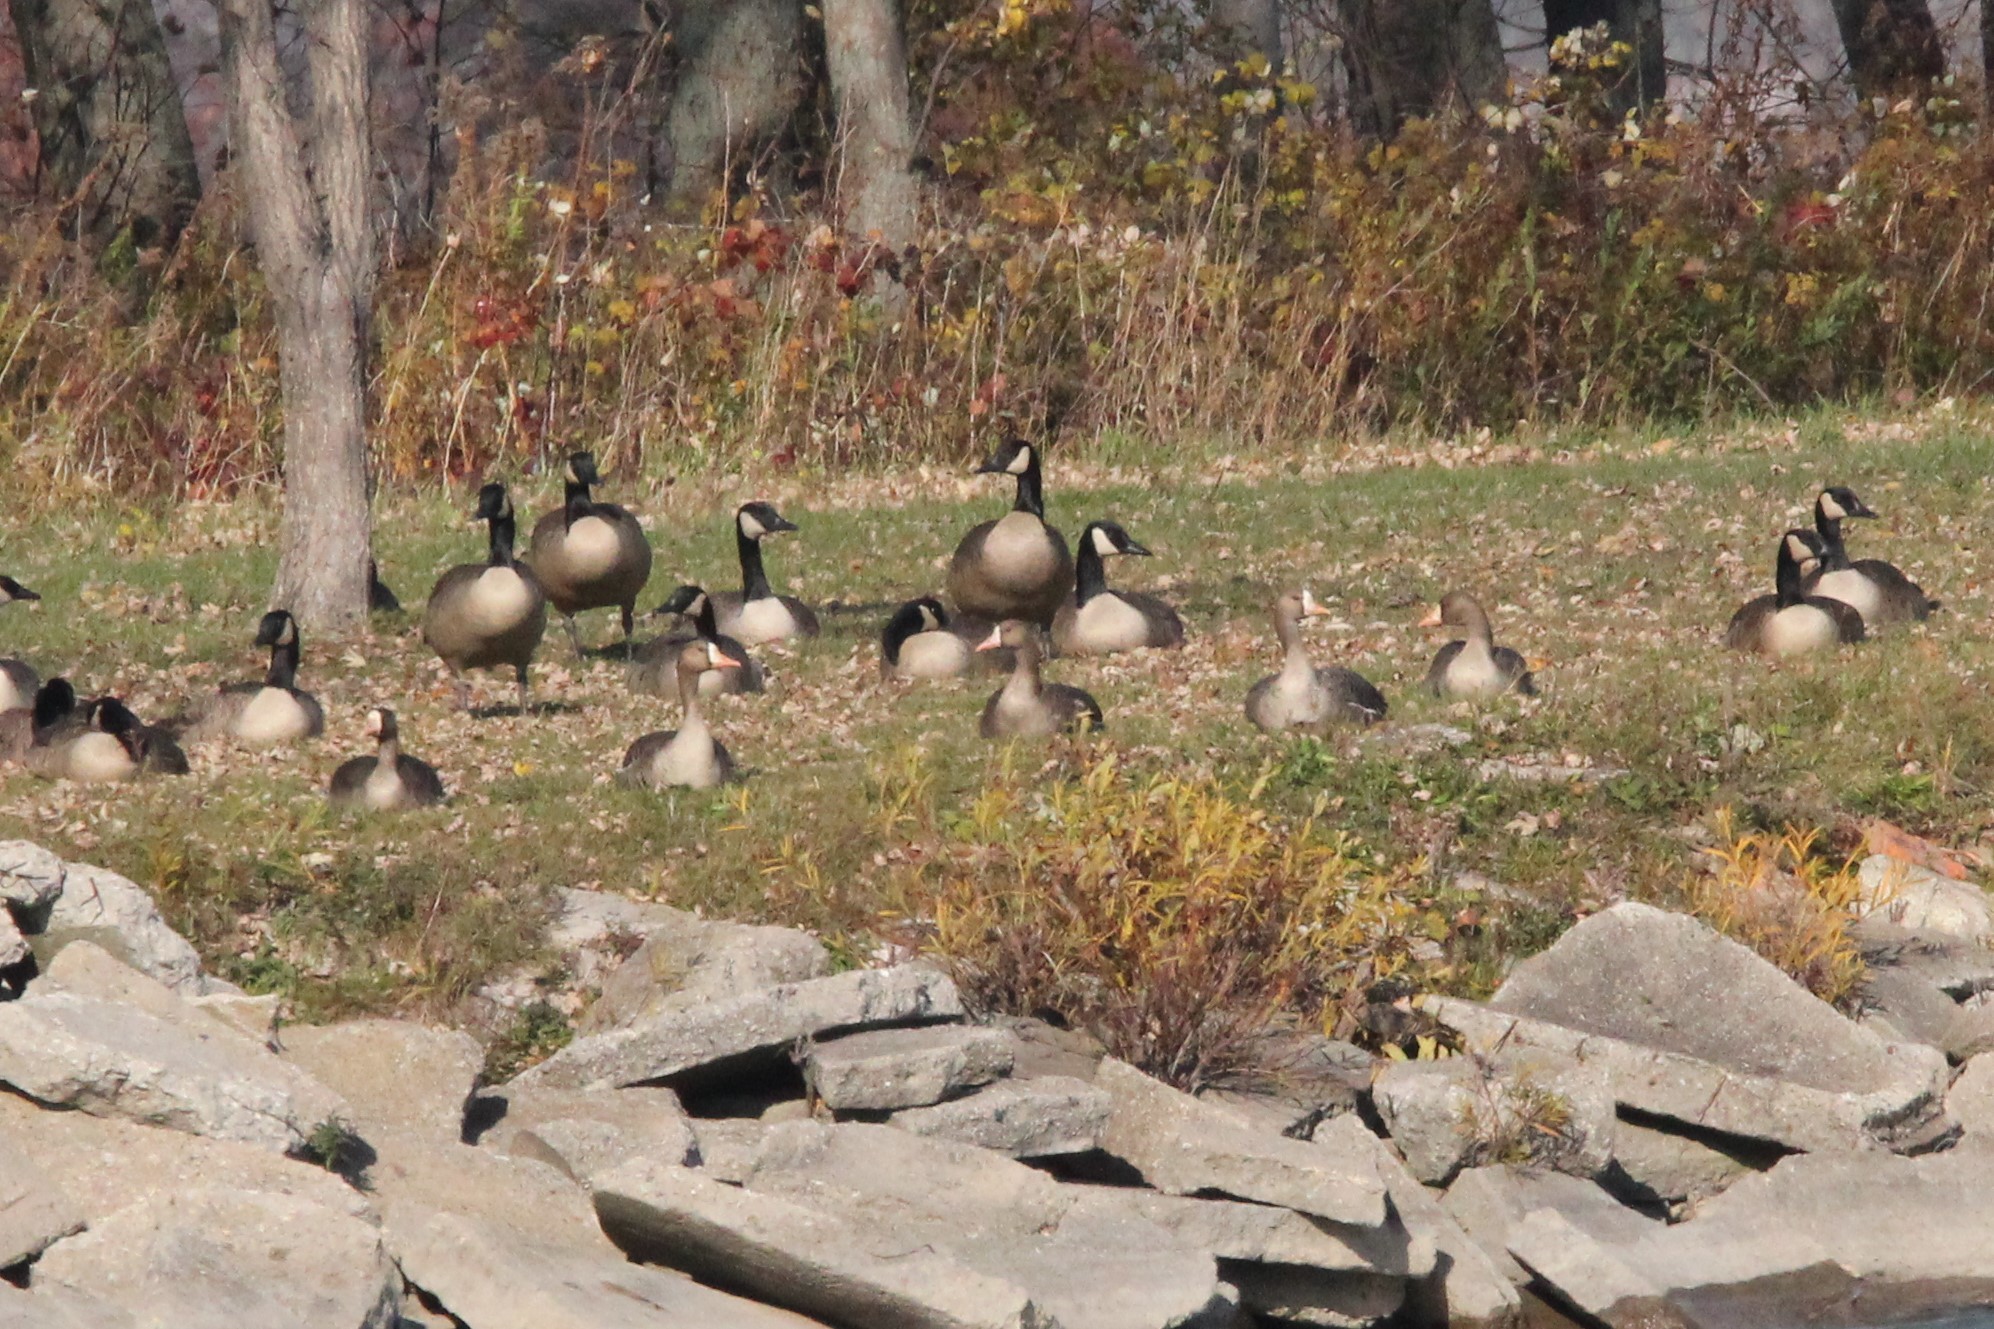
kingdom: Animalia
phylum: Chordata
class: Aves
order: Anseriformes
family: Anatidae
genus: Anser
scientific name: Anser albifrons
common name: Greater white-fronted goose
